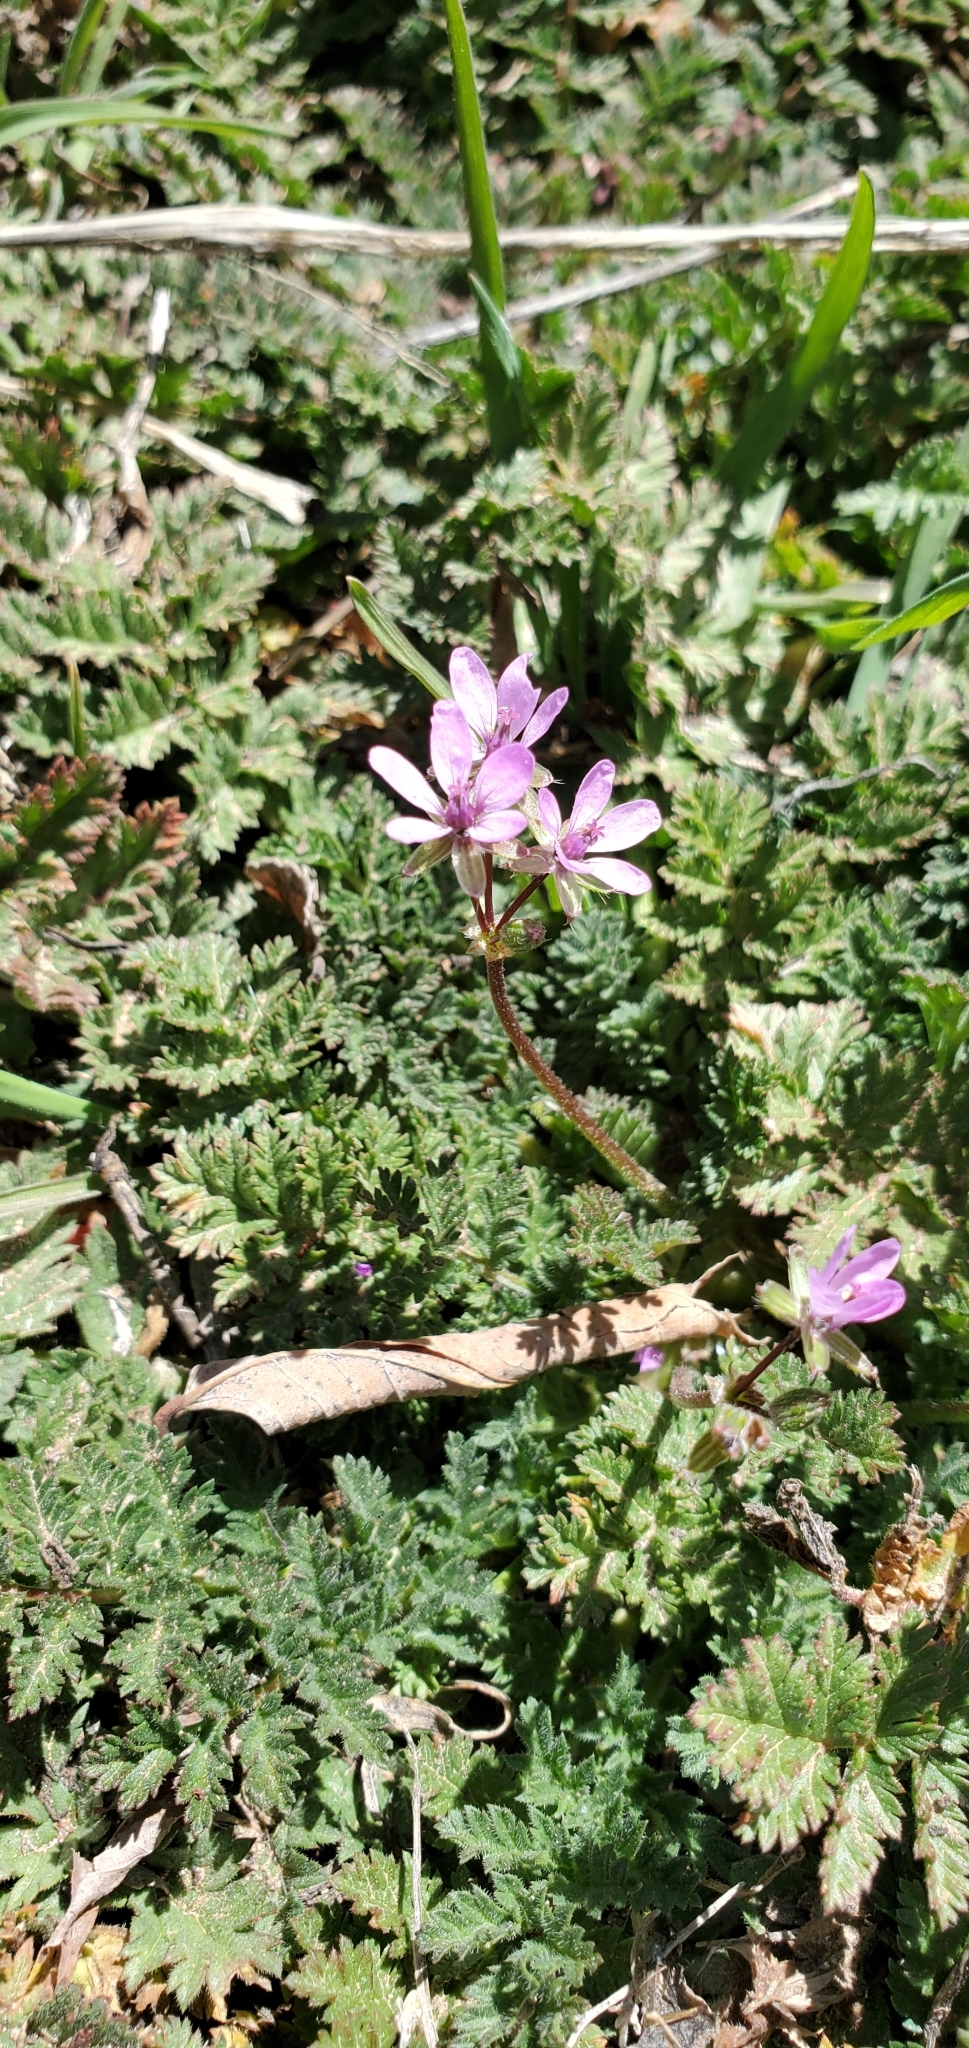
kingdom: Plantae
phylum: Tracheophyta
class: Magnoliopsida
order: Geraniales
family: Geraniaceae
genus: Erodium
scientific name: Erodium cicutarium
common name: Common stork's-bill
